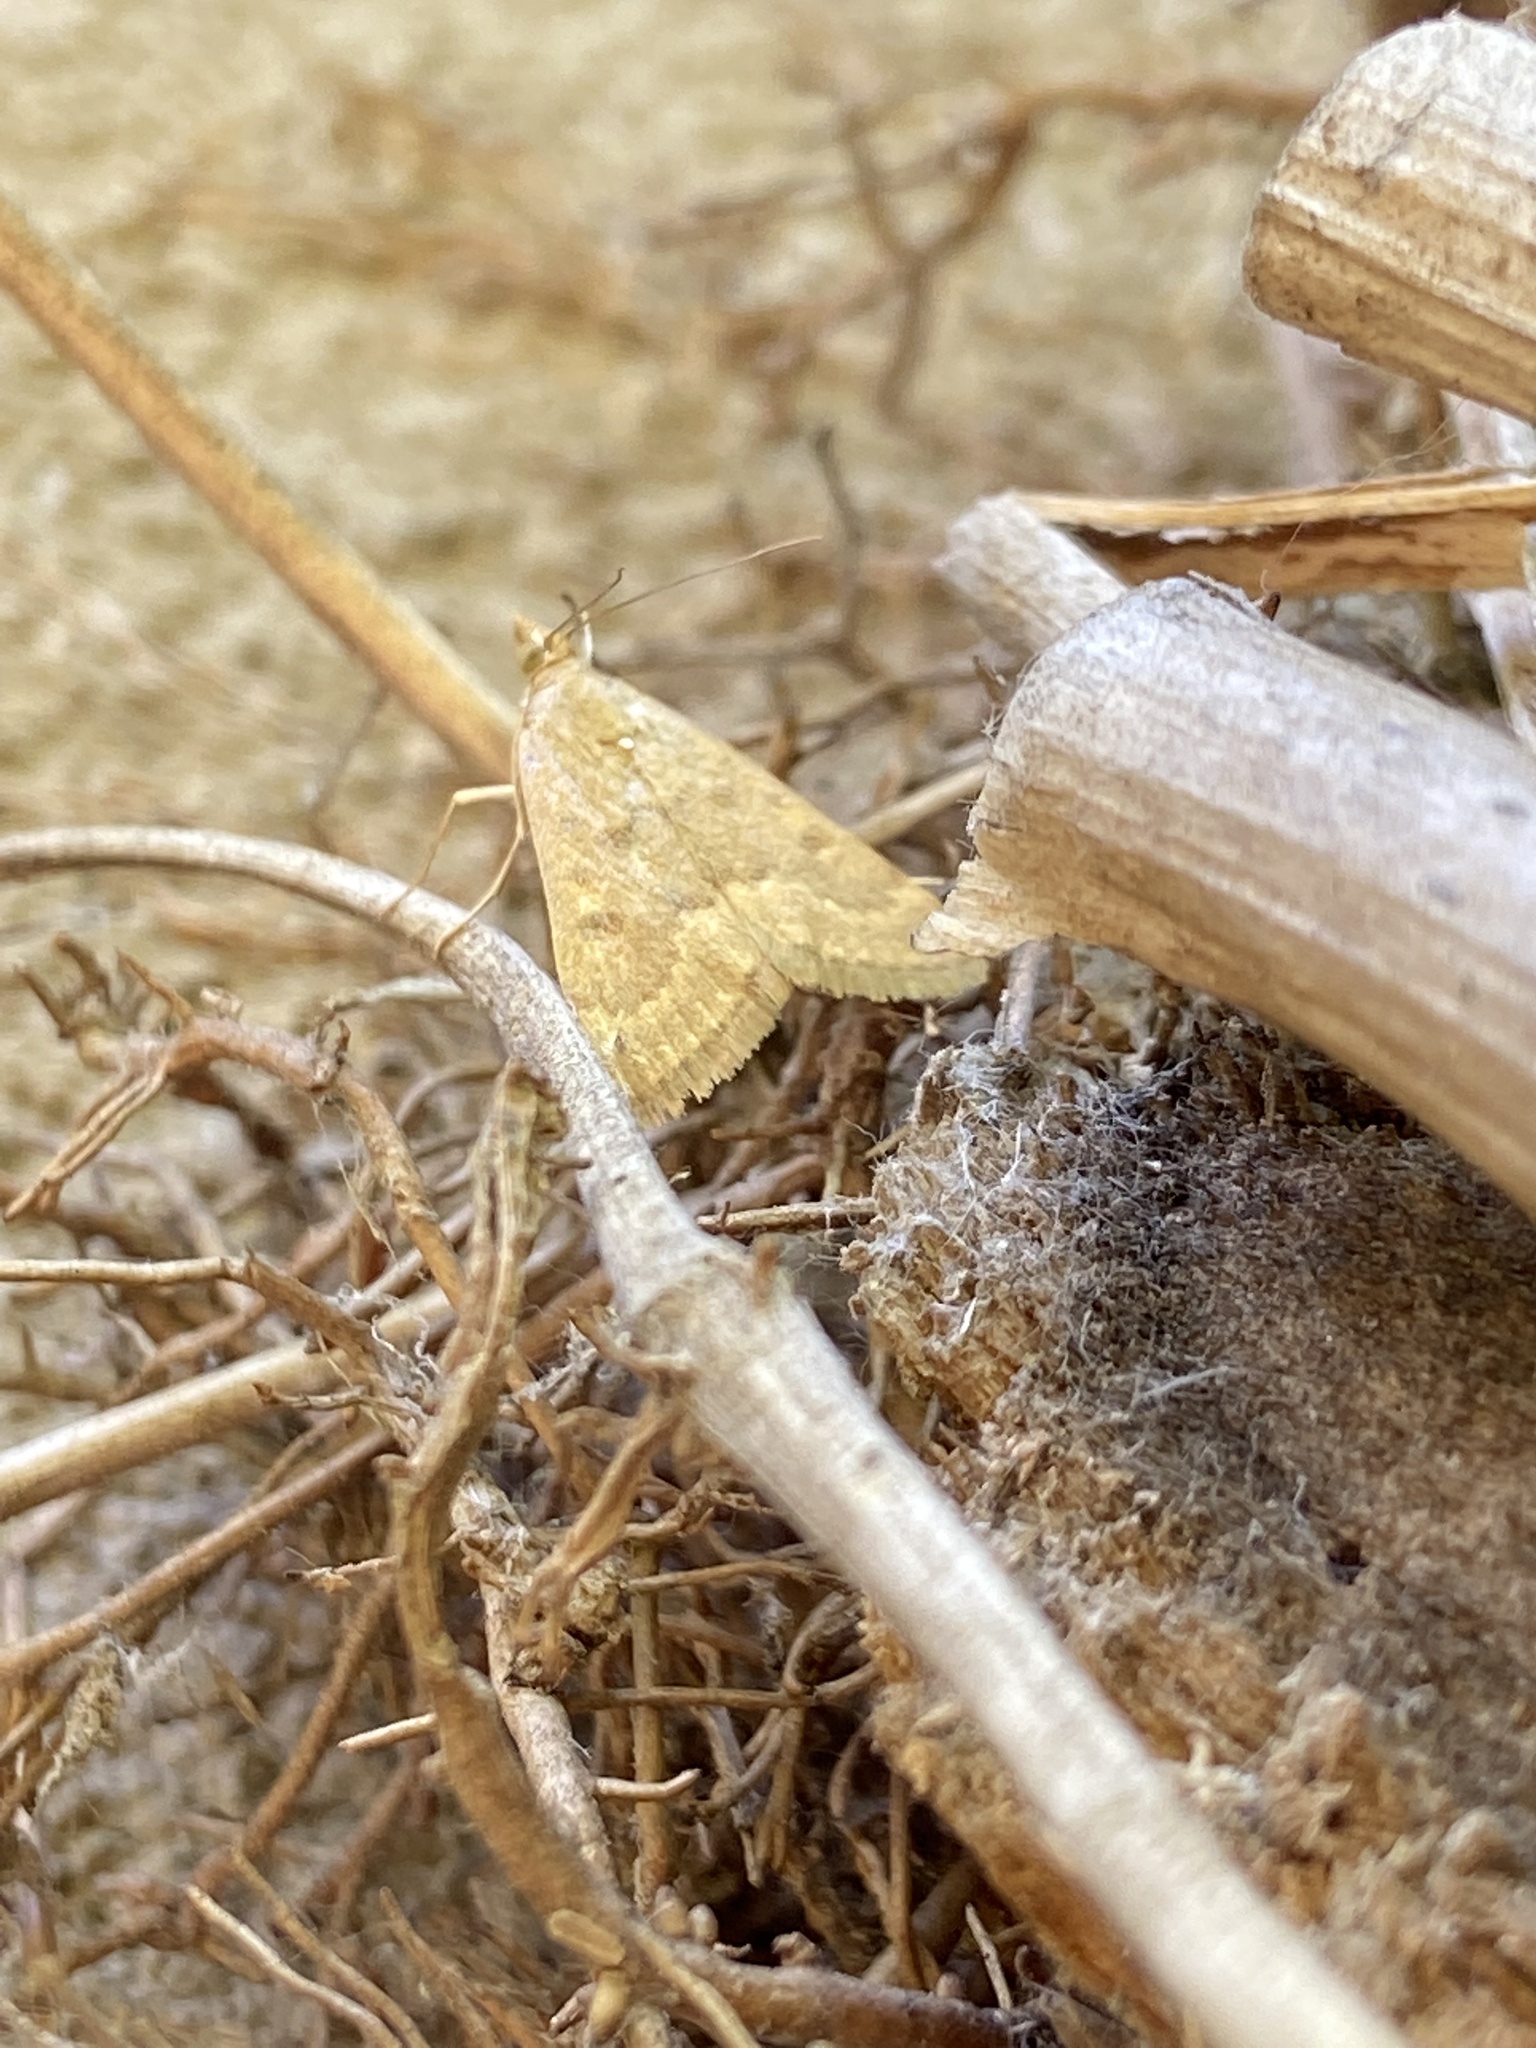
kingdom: Animalia
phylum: Arthropoda
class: Insecta
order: Lepidoptera
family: Crambidae
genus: Achyra
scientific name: Achyra rantalis
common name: Garden webworm
